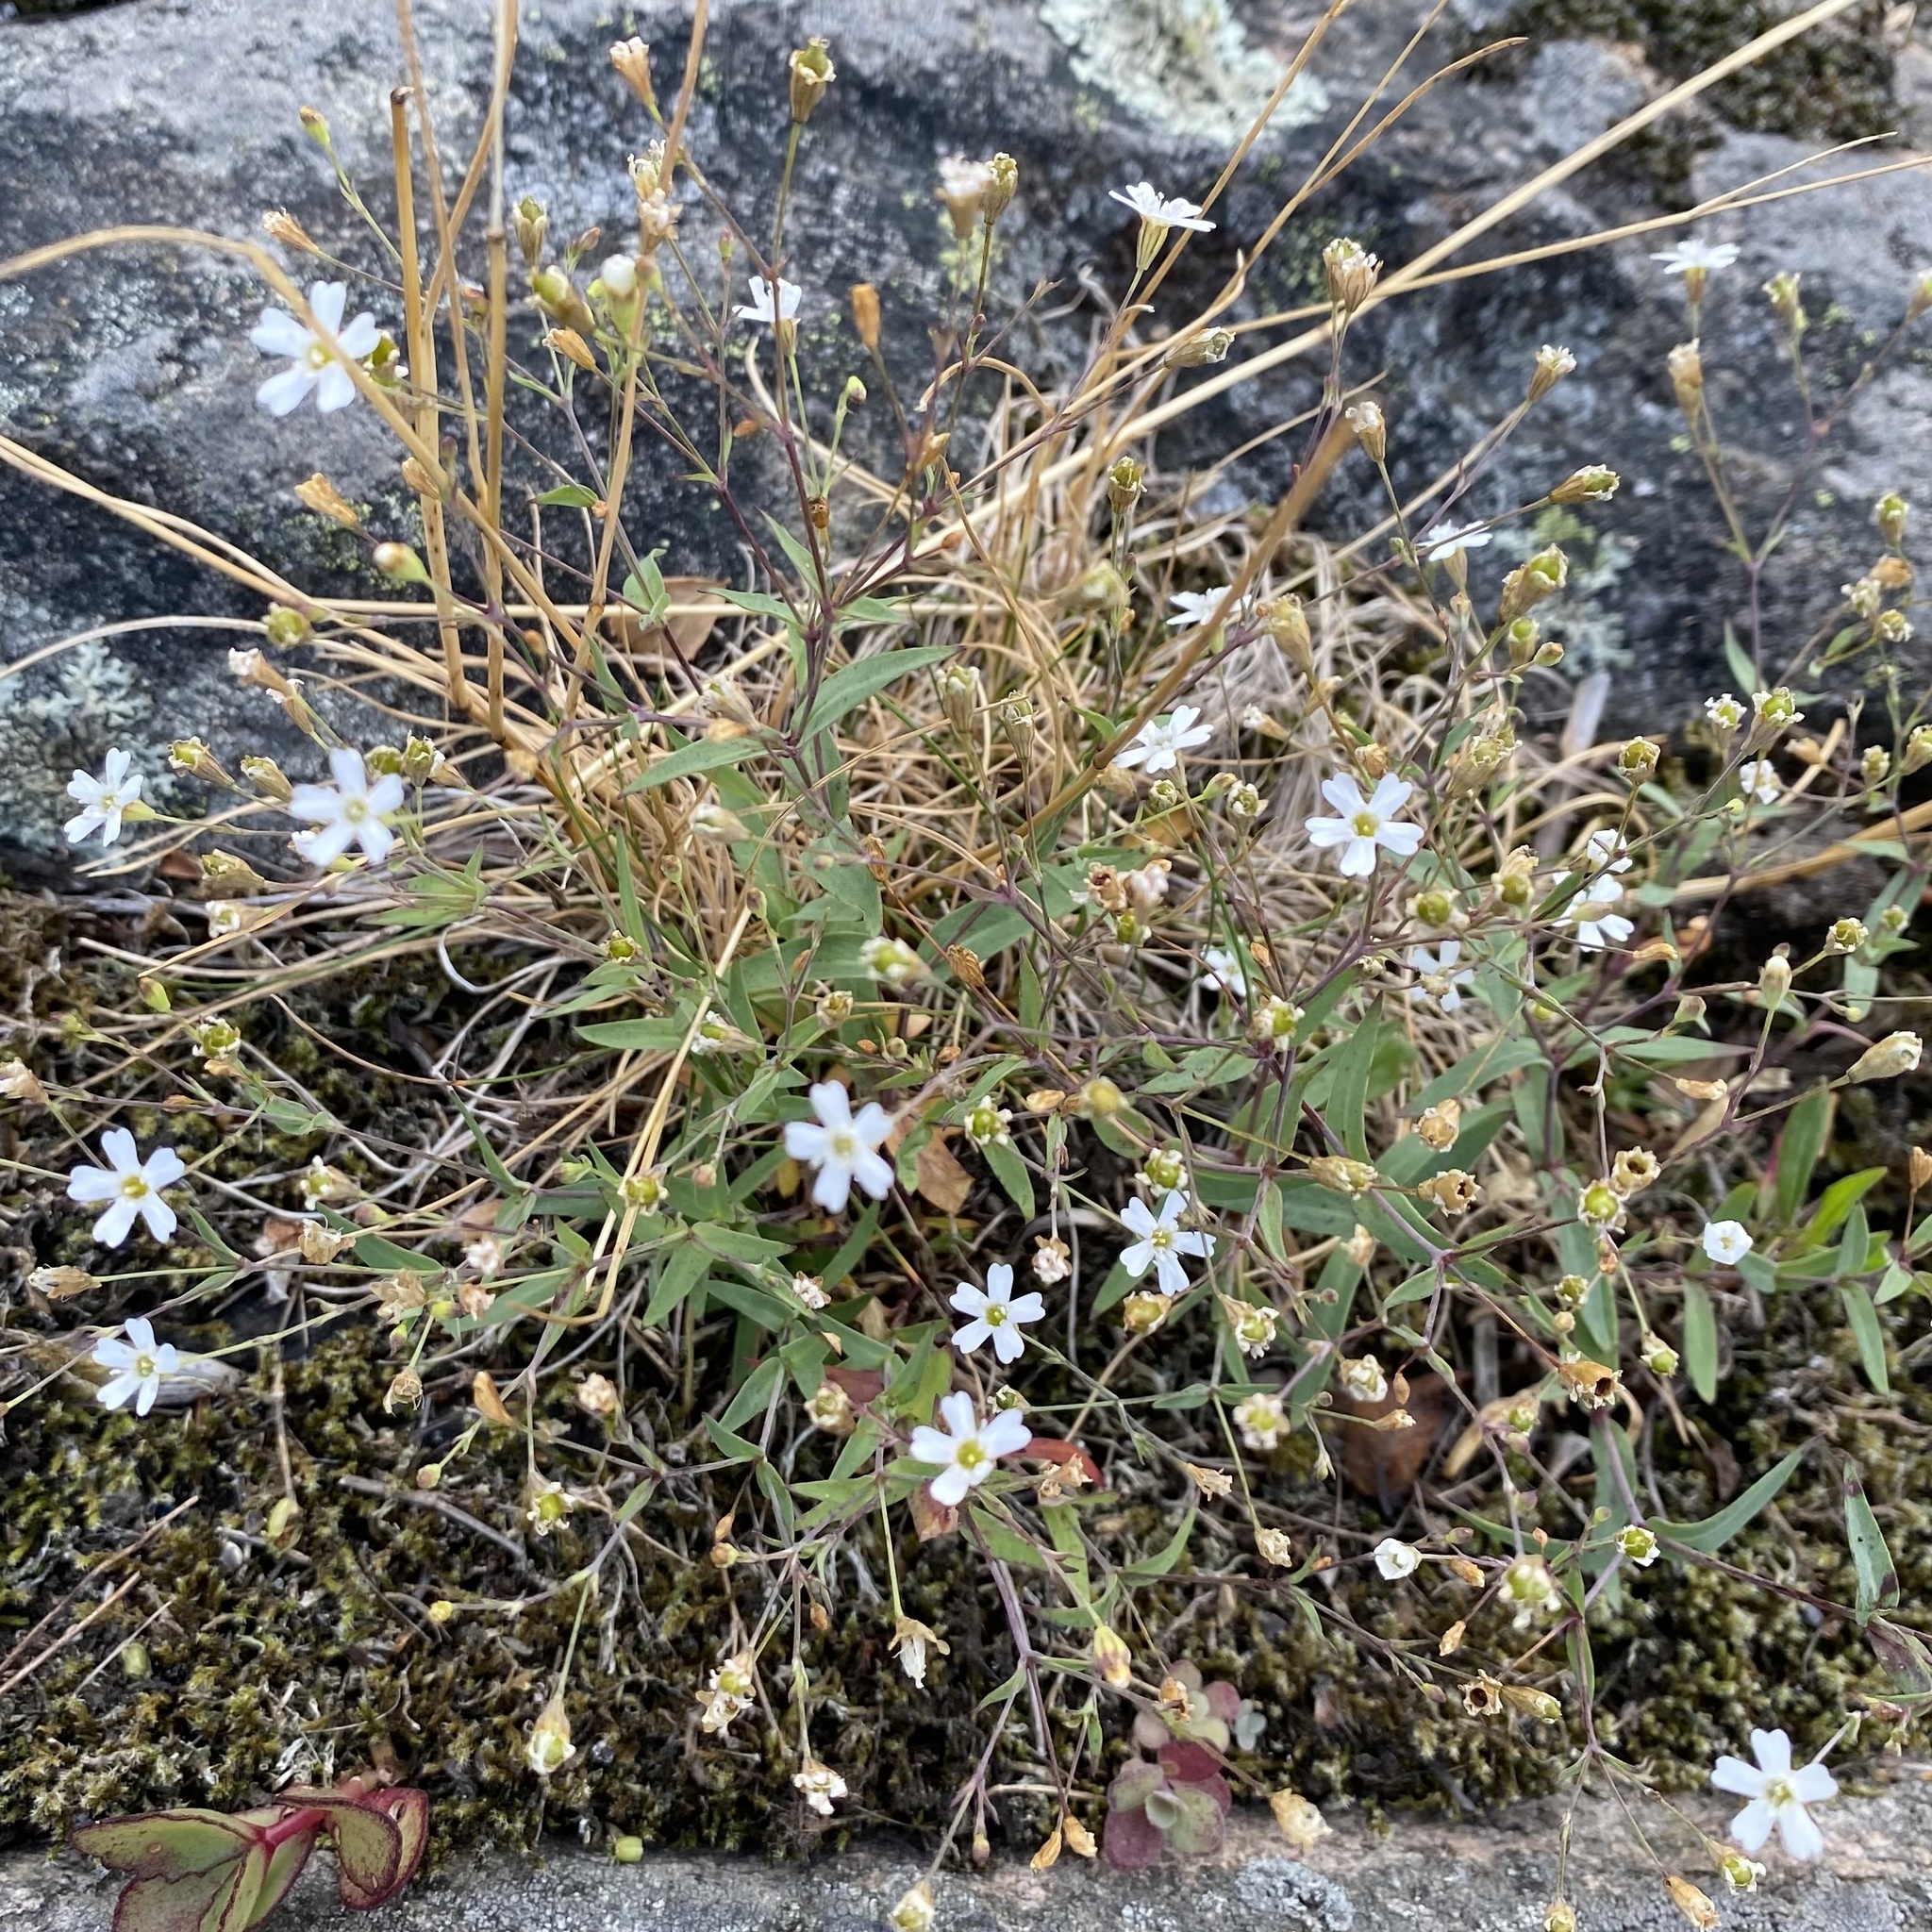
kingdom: Plantae
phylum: Tracheophyta
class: Magnoliopsida
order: Caryophyllales
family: Caryophyllaceae
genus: Atocion
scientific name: Atocion rupestre
